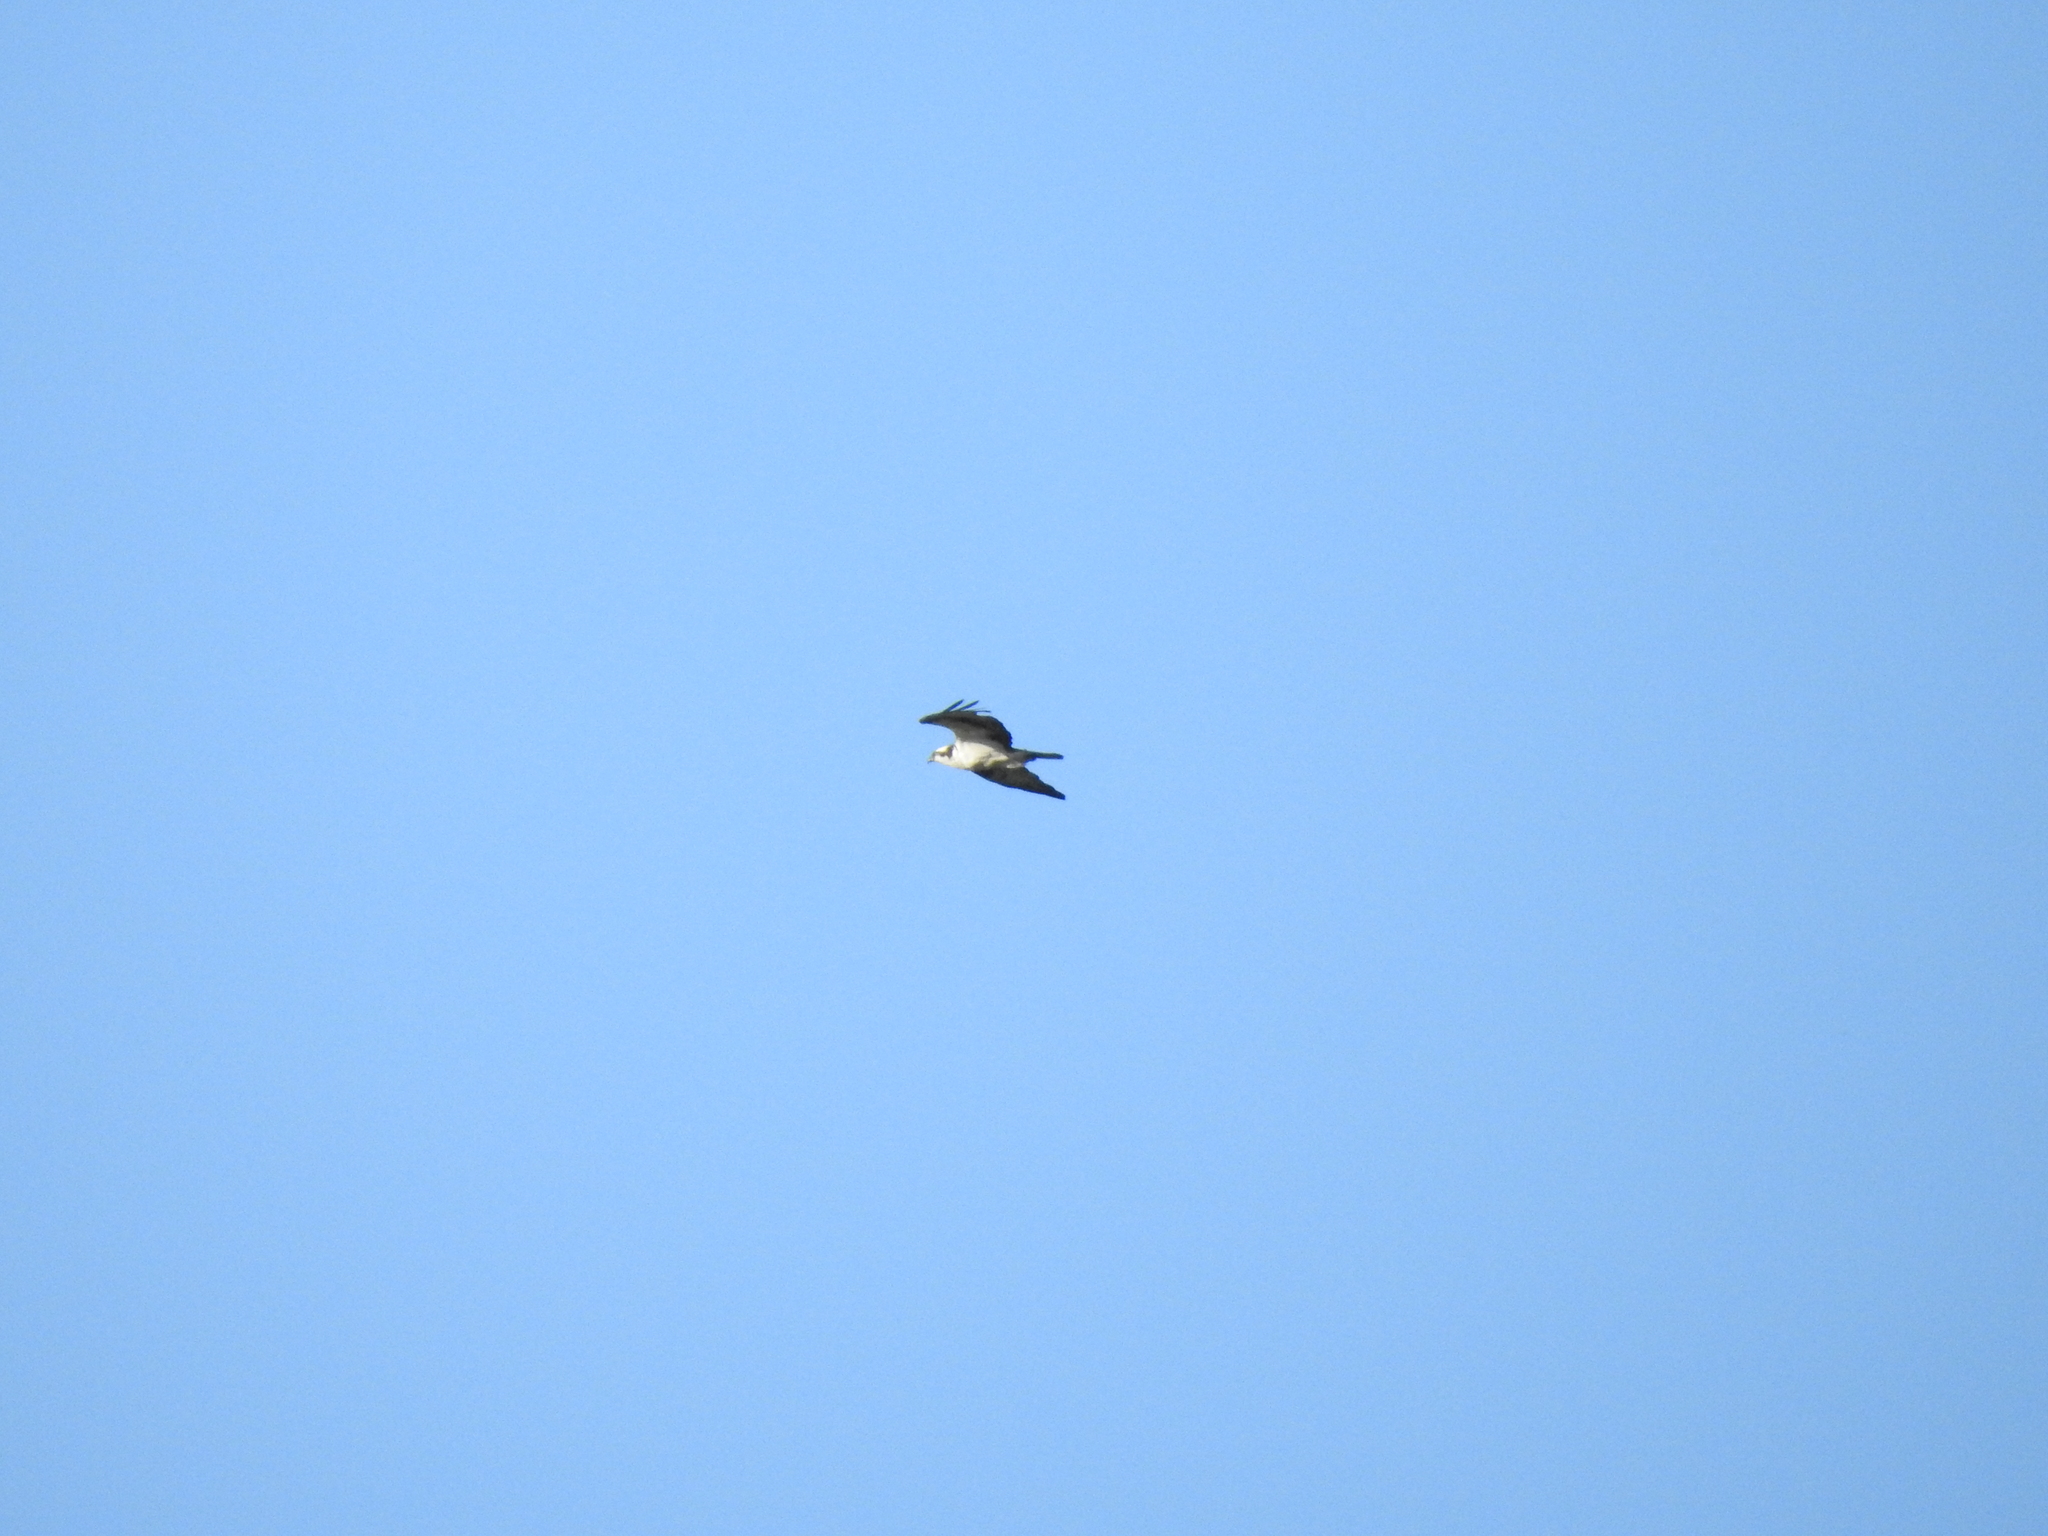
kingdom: Animalia
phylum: Chordata
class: Aves
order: Accipitriformes
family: Pandionidae
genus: Pandion
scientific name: Pandion haliaetus
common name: Osprey
